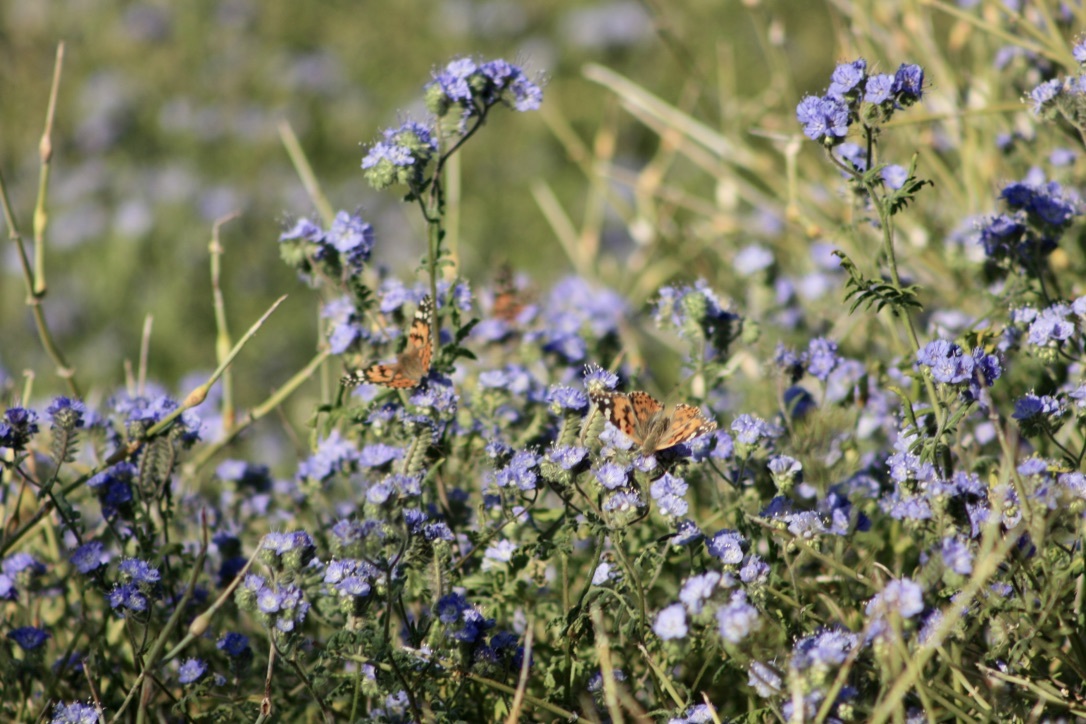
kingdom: Animalia
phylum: Arthropoda
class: Insecta
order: Lepidoptera
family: Nymphalidae
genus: Vanessa
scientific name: Vanessa cardui
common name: Painted lady
